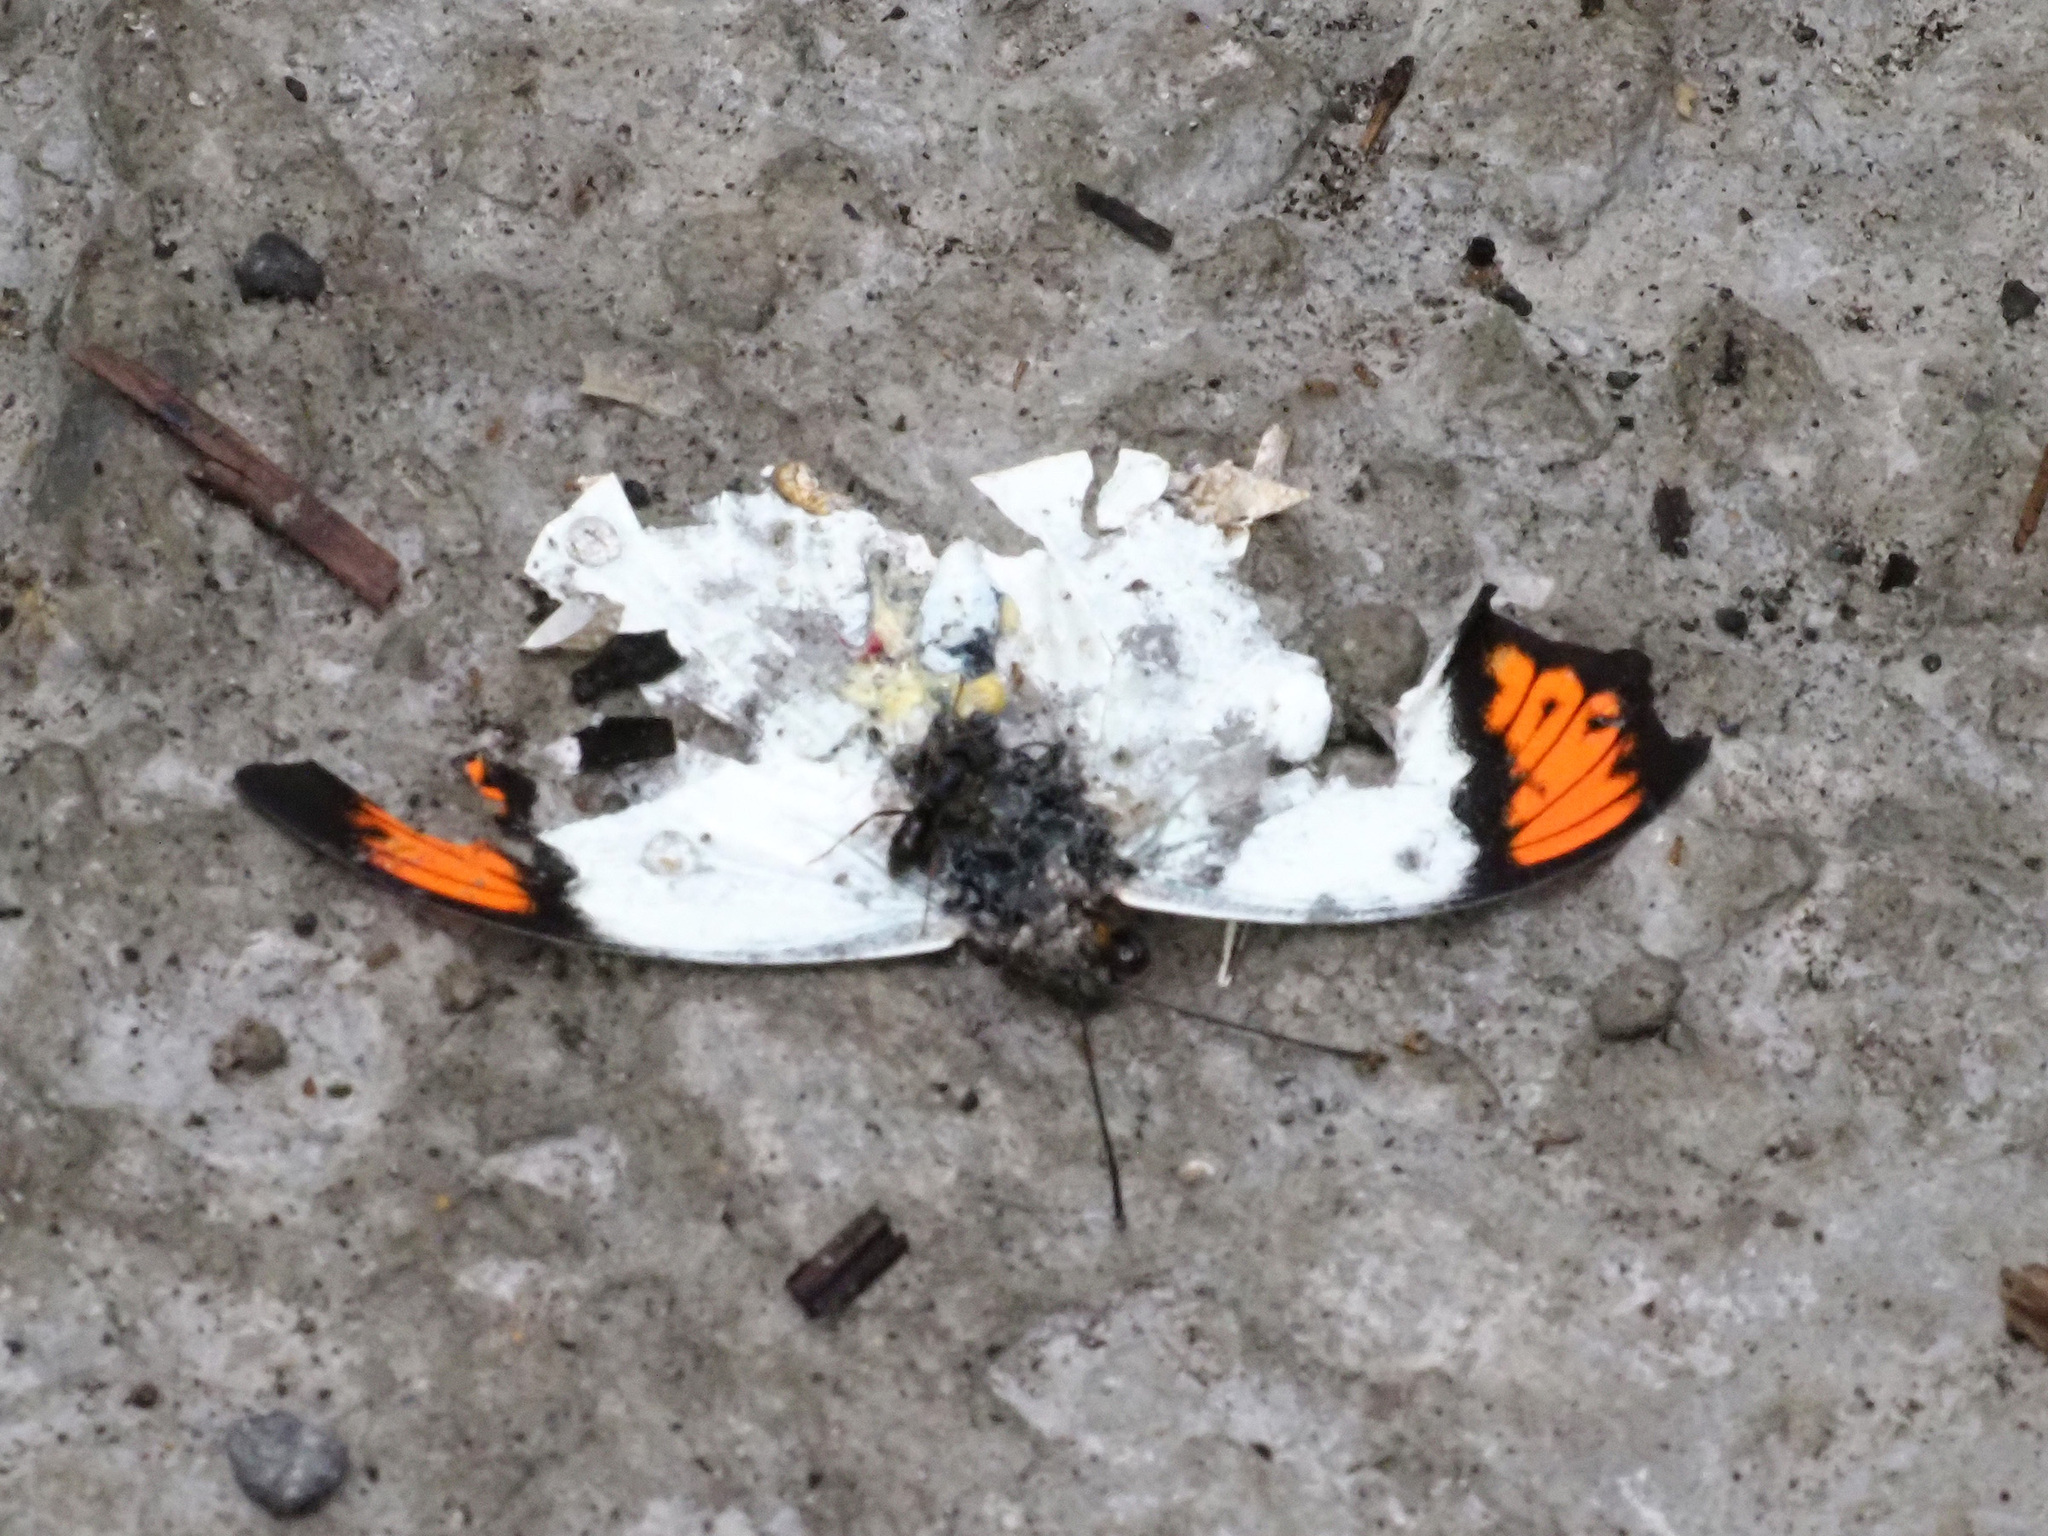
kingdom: Animalia
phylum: Arthropoda
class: Insecta
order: Lepidoptera
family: Pieridae
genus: Hebomoia
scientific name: Hebomoia glaucippe
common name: Great orange tip
